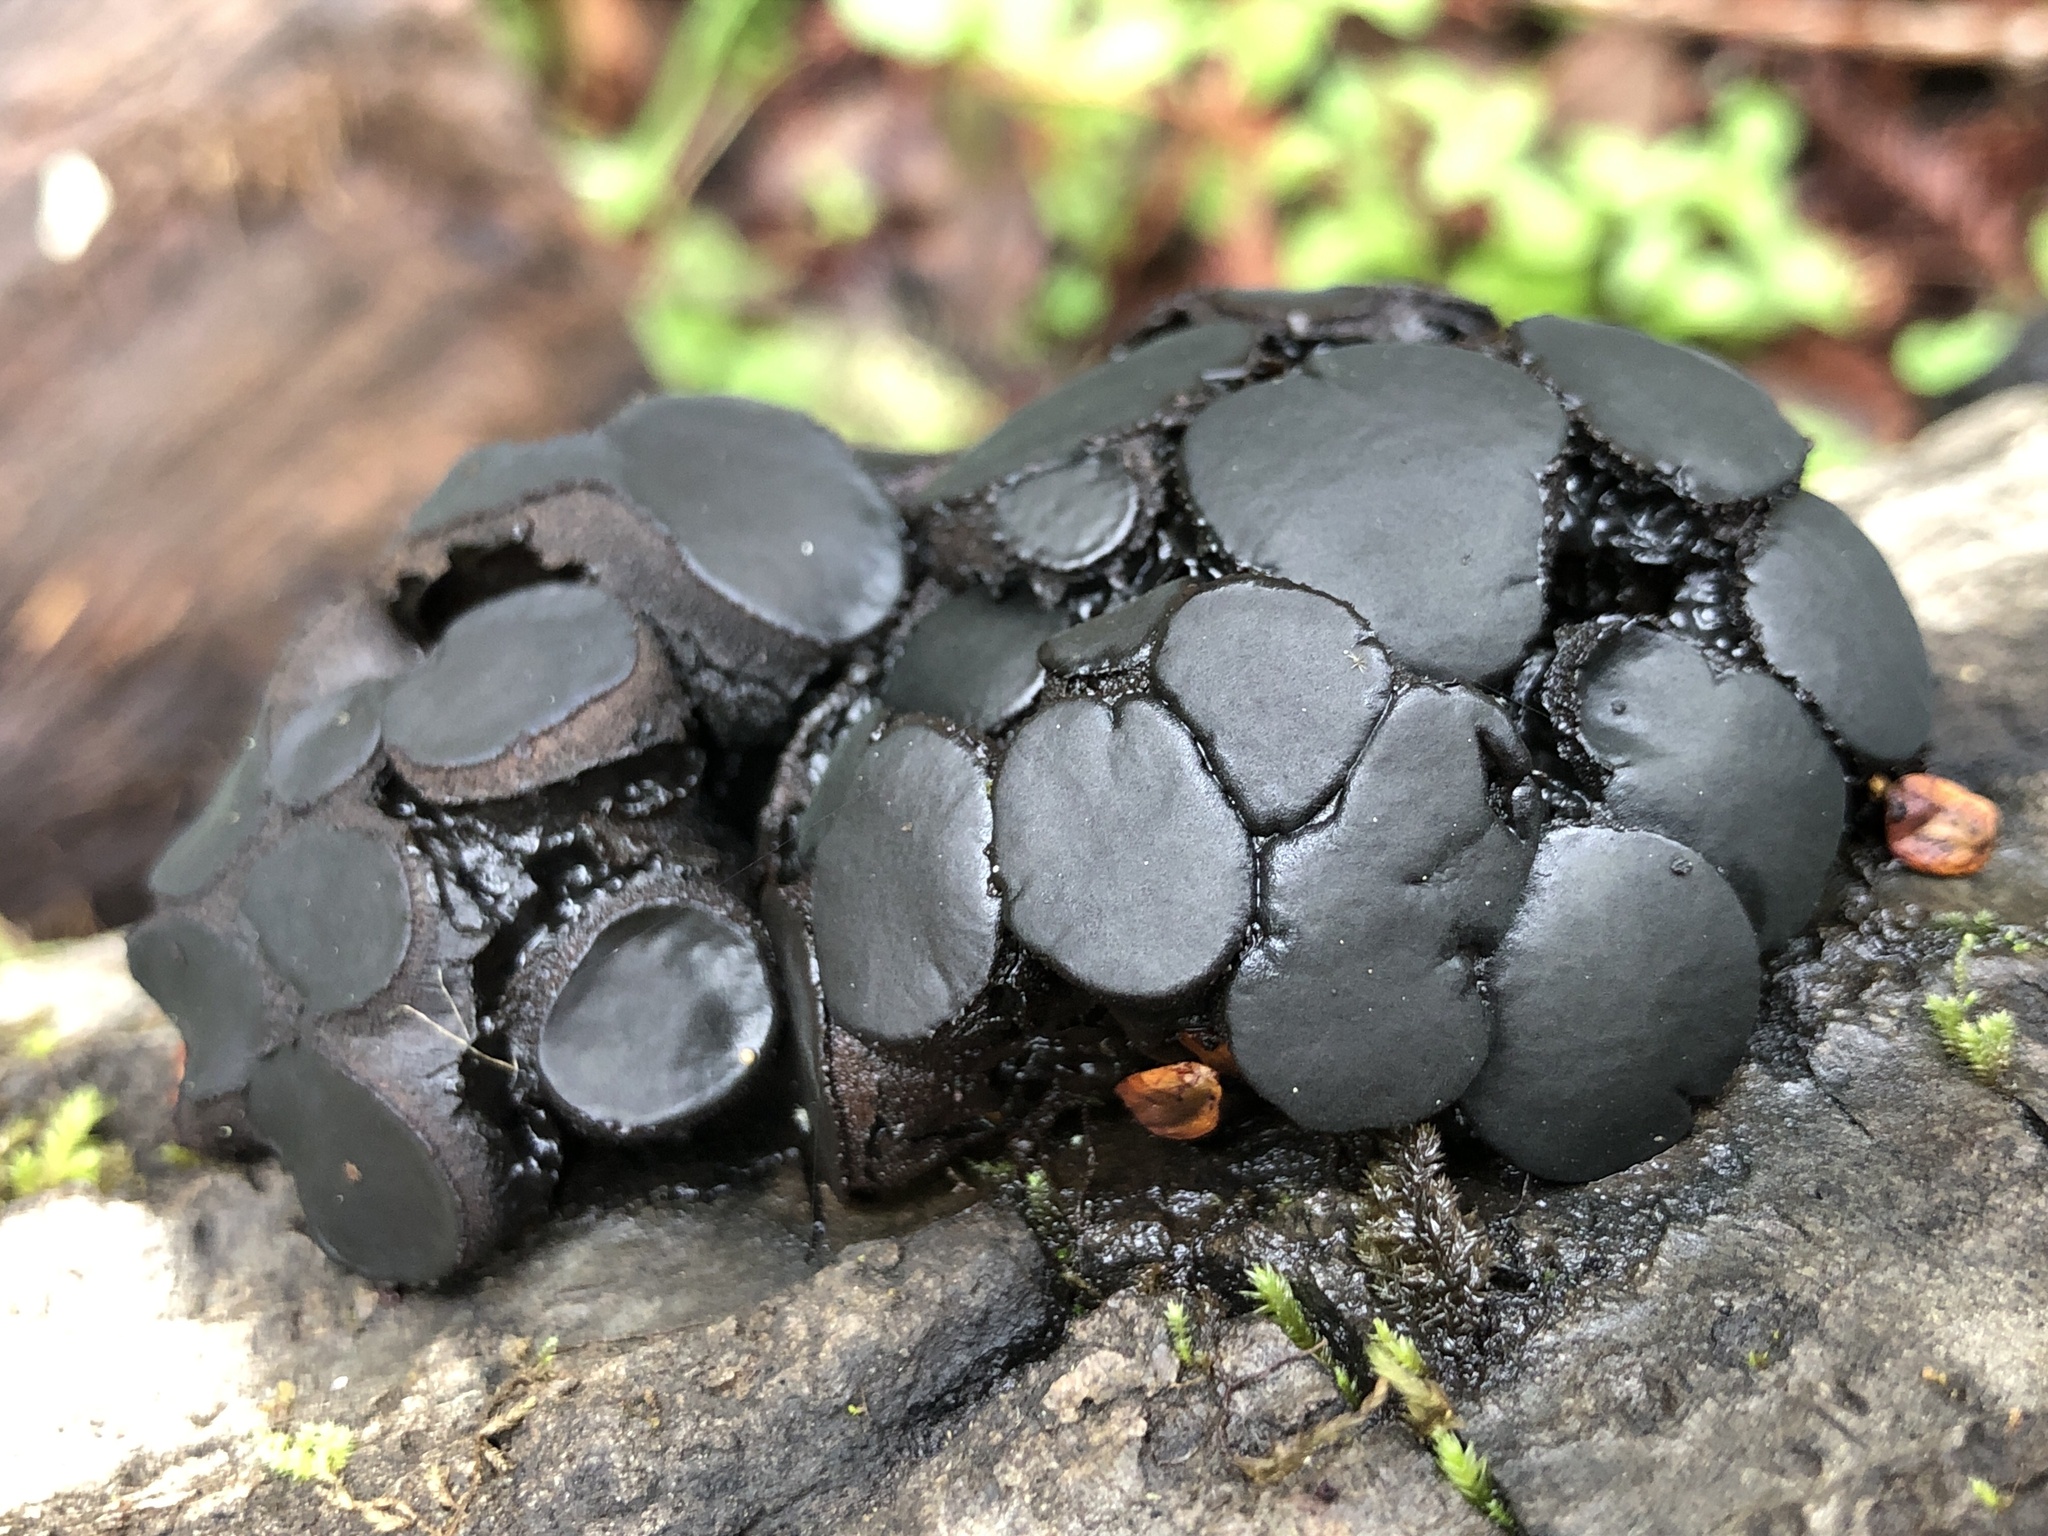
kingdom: Fungi
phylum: Ascomycota
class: Leotiomycetes
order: Phacidiales
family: Phacidiaceae
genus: Bulgaria
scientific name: Bulgaria inquinans
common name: Black bulgar
